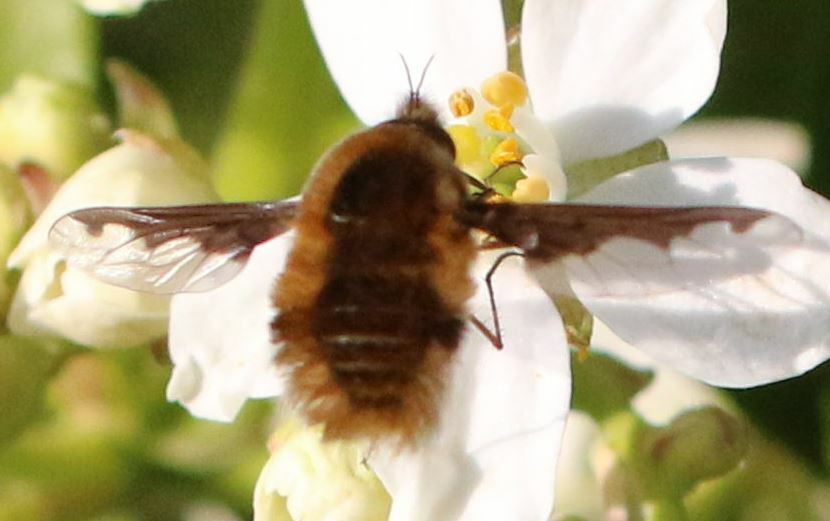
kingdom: Animalia
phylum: Arthropoda
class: Insecta
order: Diptera
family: Bombyliidae
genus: Bombylius
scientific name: Bombylius major
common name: Bee fly
